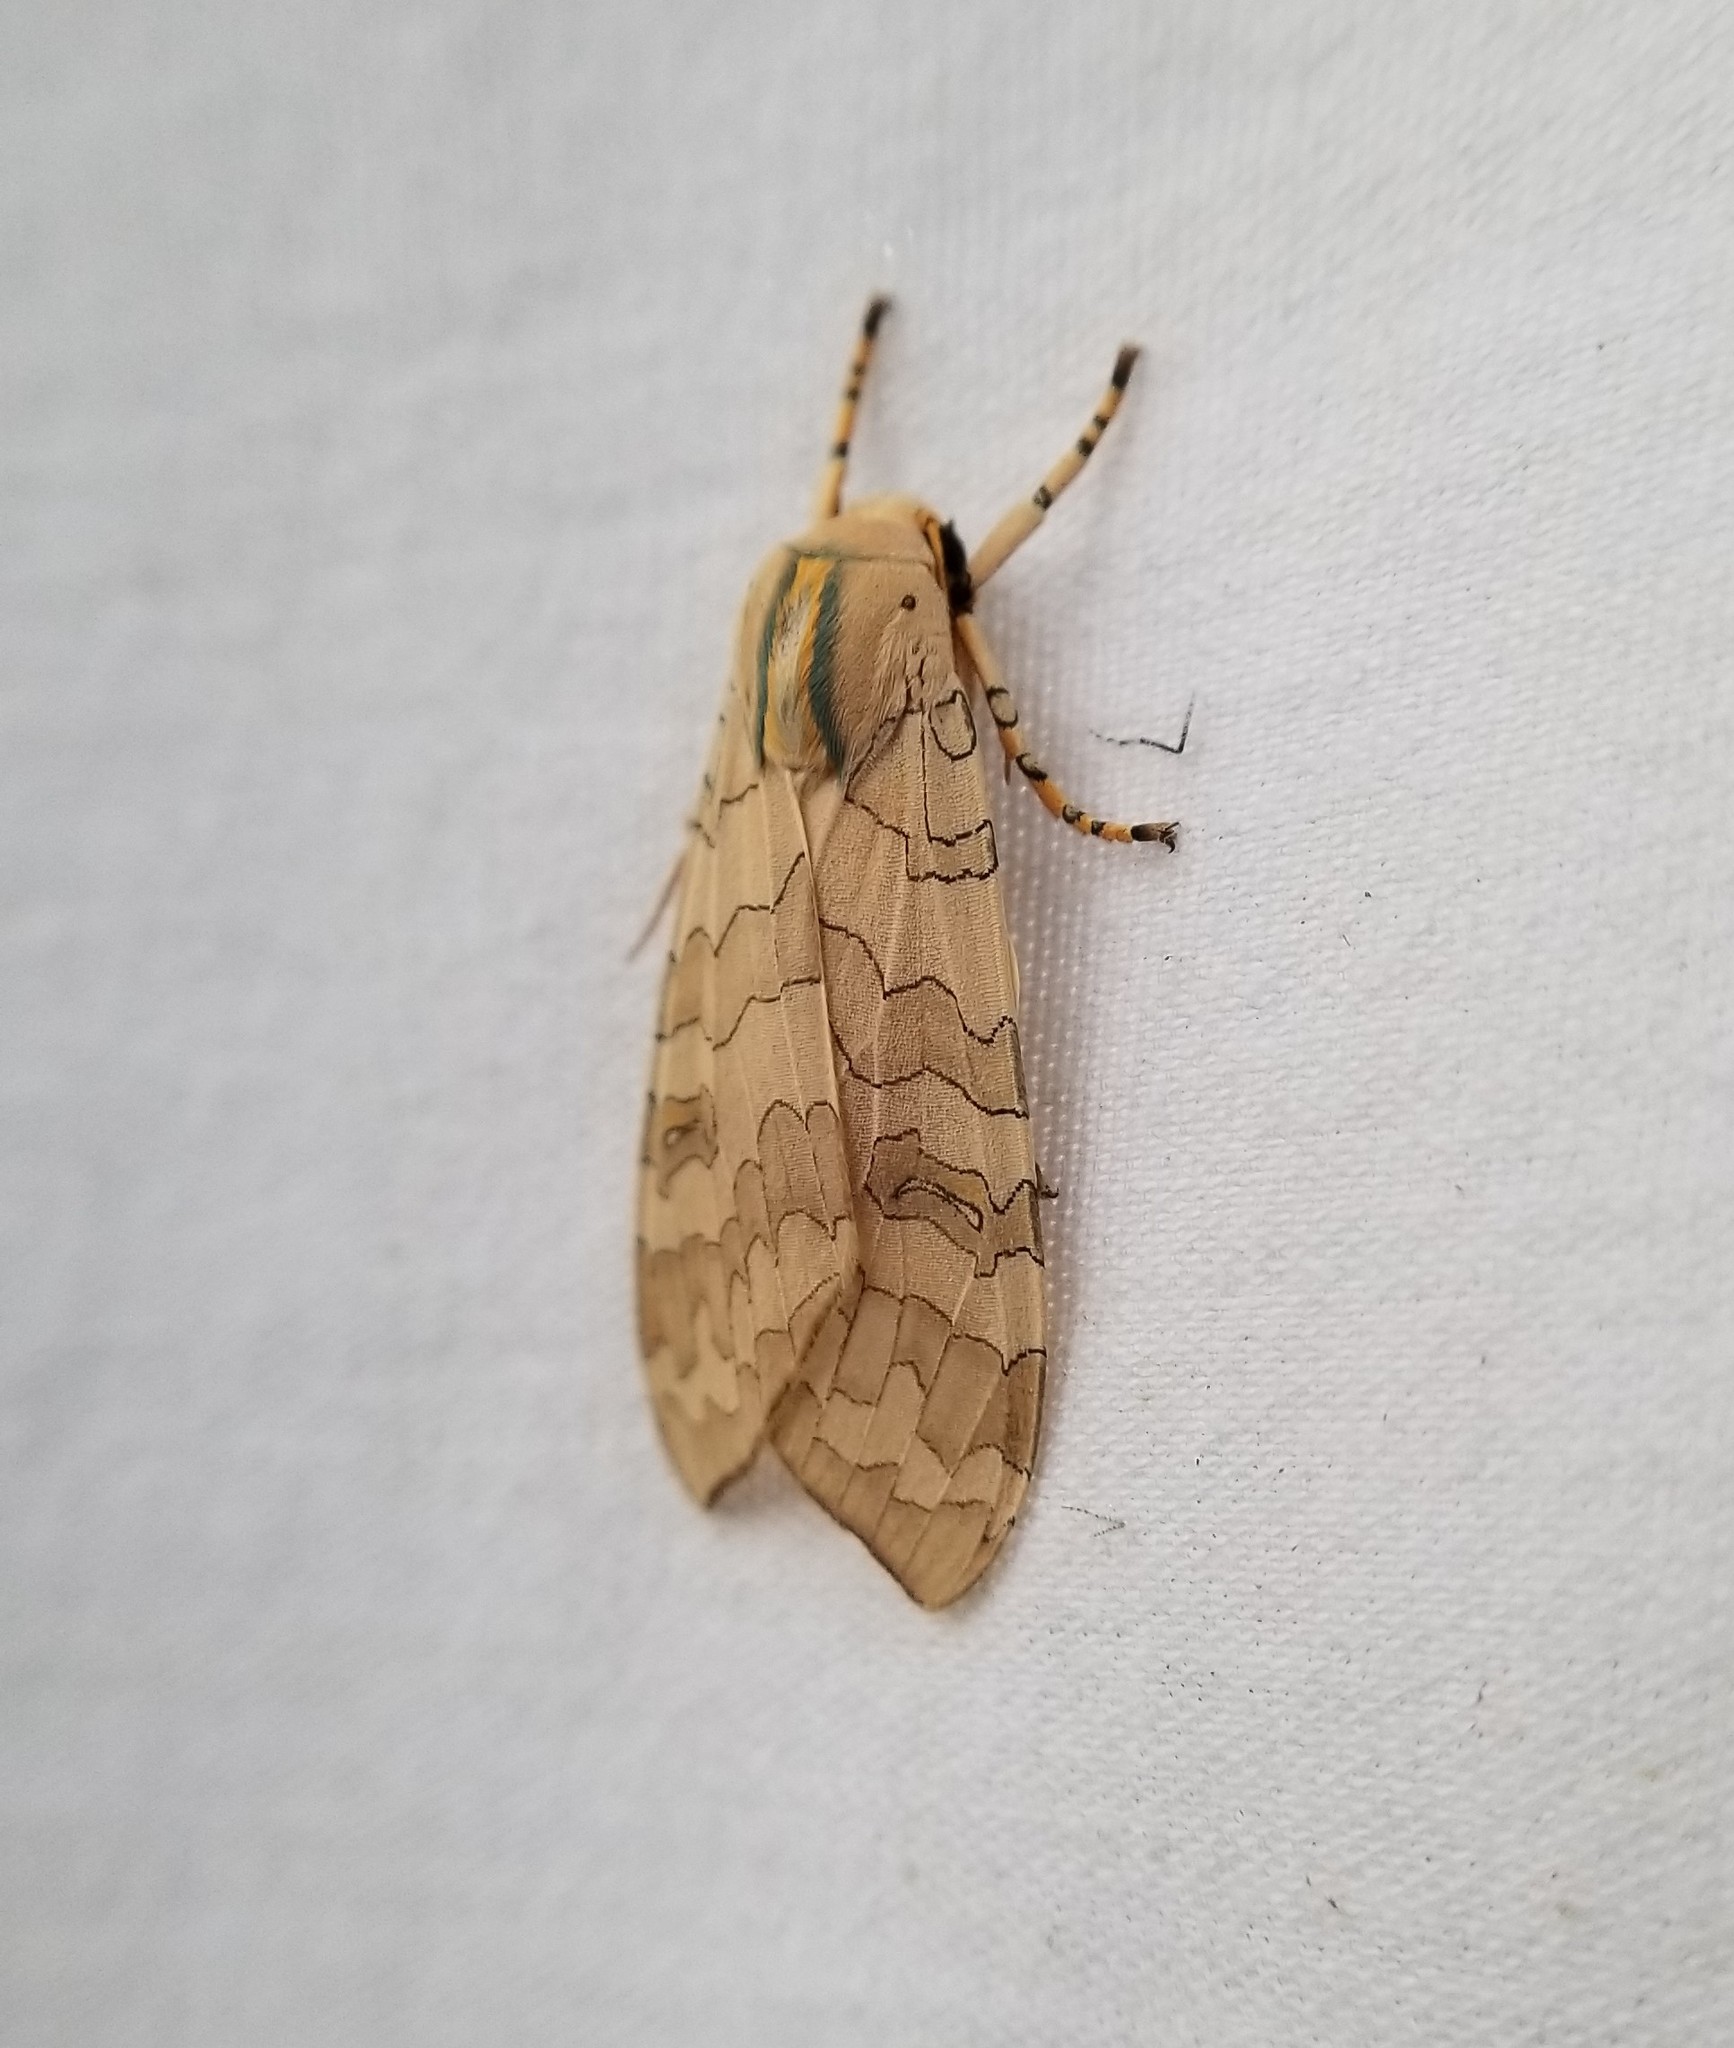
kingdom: Animalia
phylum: Arthropoda
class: Insecta
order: Lepidoptera
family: Erebidae
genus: Halysidota
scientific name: Halysidota
